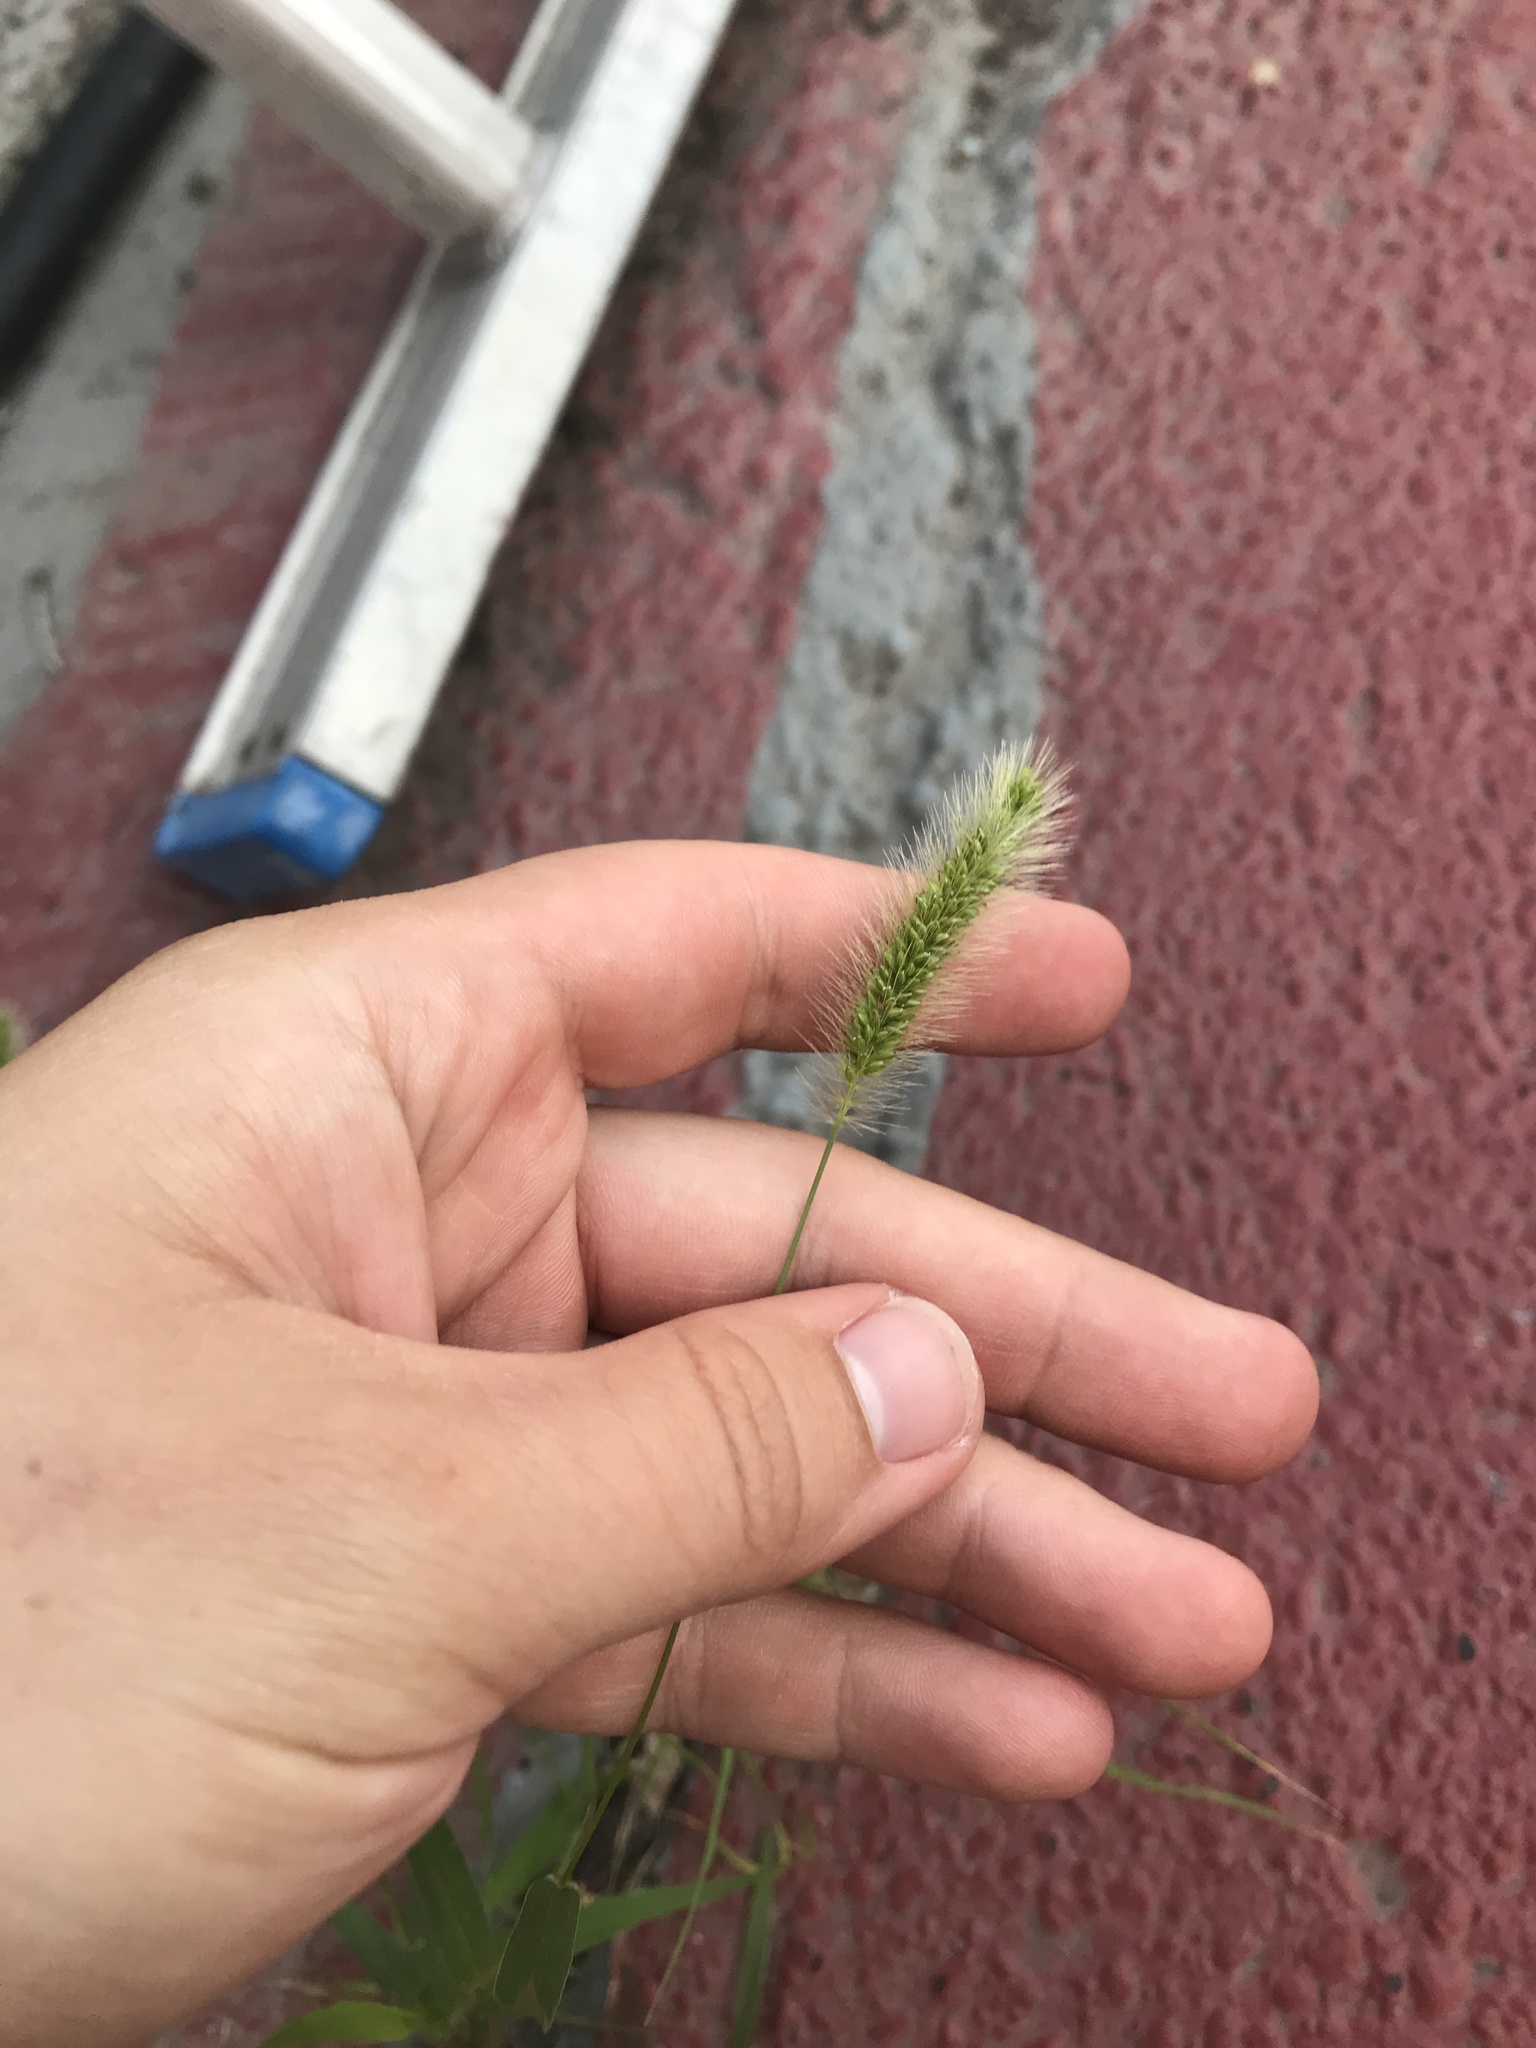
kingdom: Plantae
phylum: Tracheophyta
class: Liliopsida
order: Poales
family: Poaceae
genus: Setaria
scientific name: Setaria viridis
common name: Green bristlegrass
